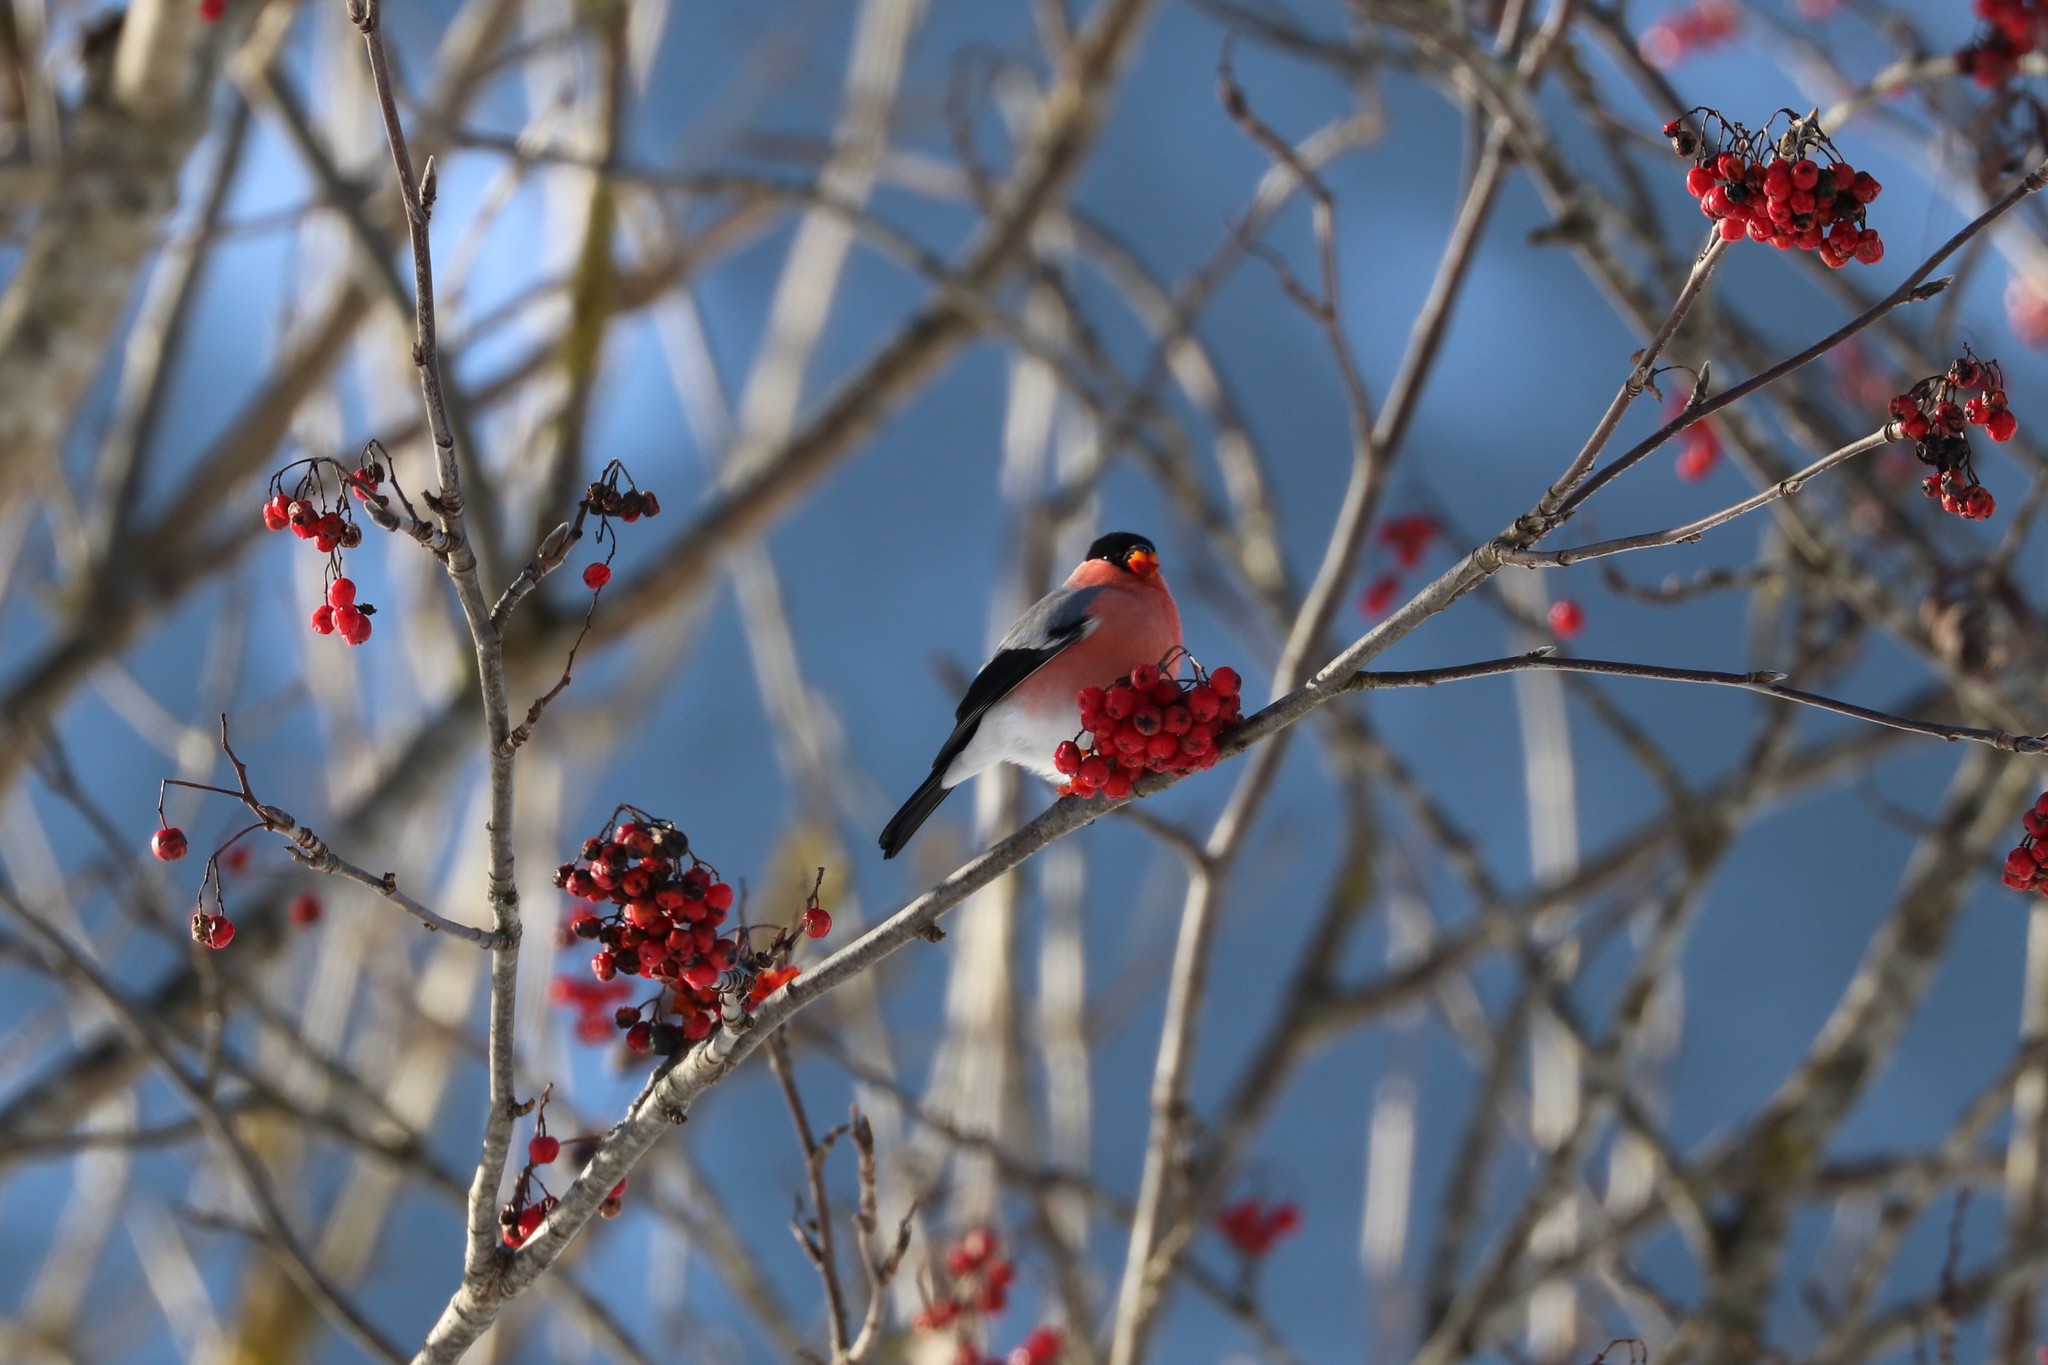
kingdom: Animalia
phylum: Chordata
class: Aves
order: Passeriformes
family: Fringillidae
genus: Pyrrhula
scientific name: Pyrrhula pyrrhula
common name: Eurasian bullfinch
